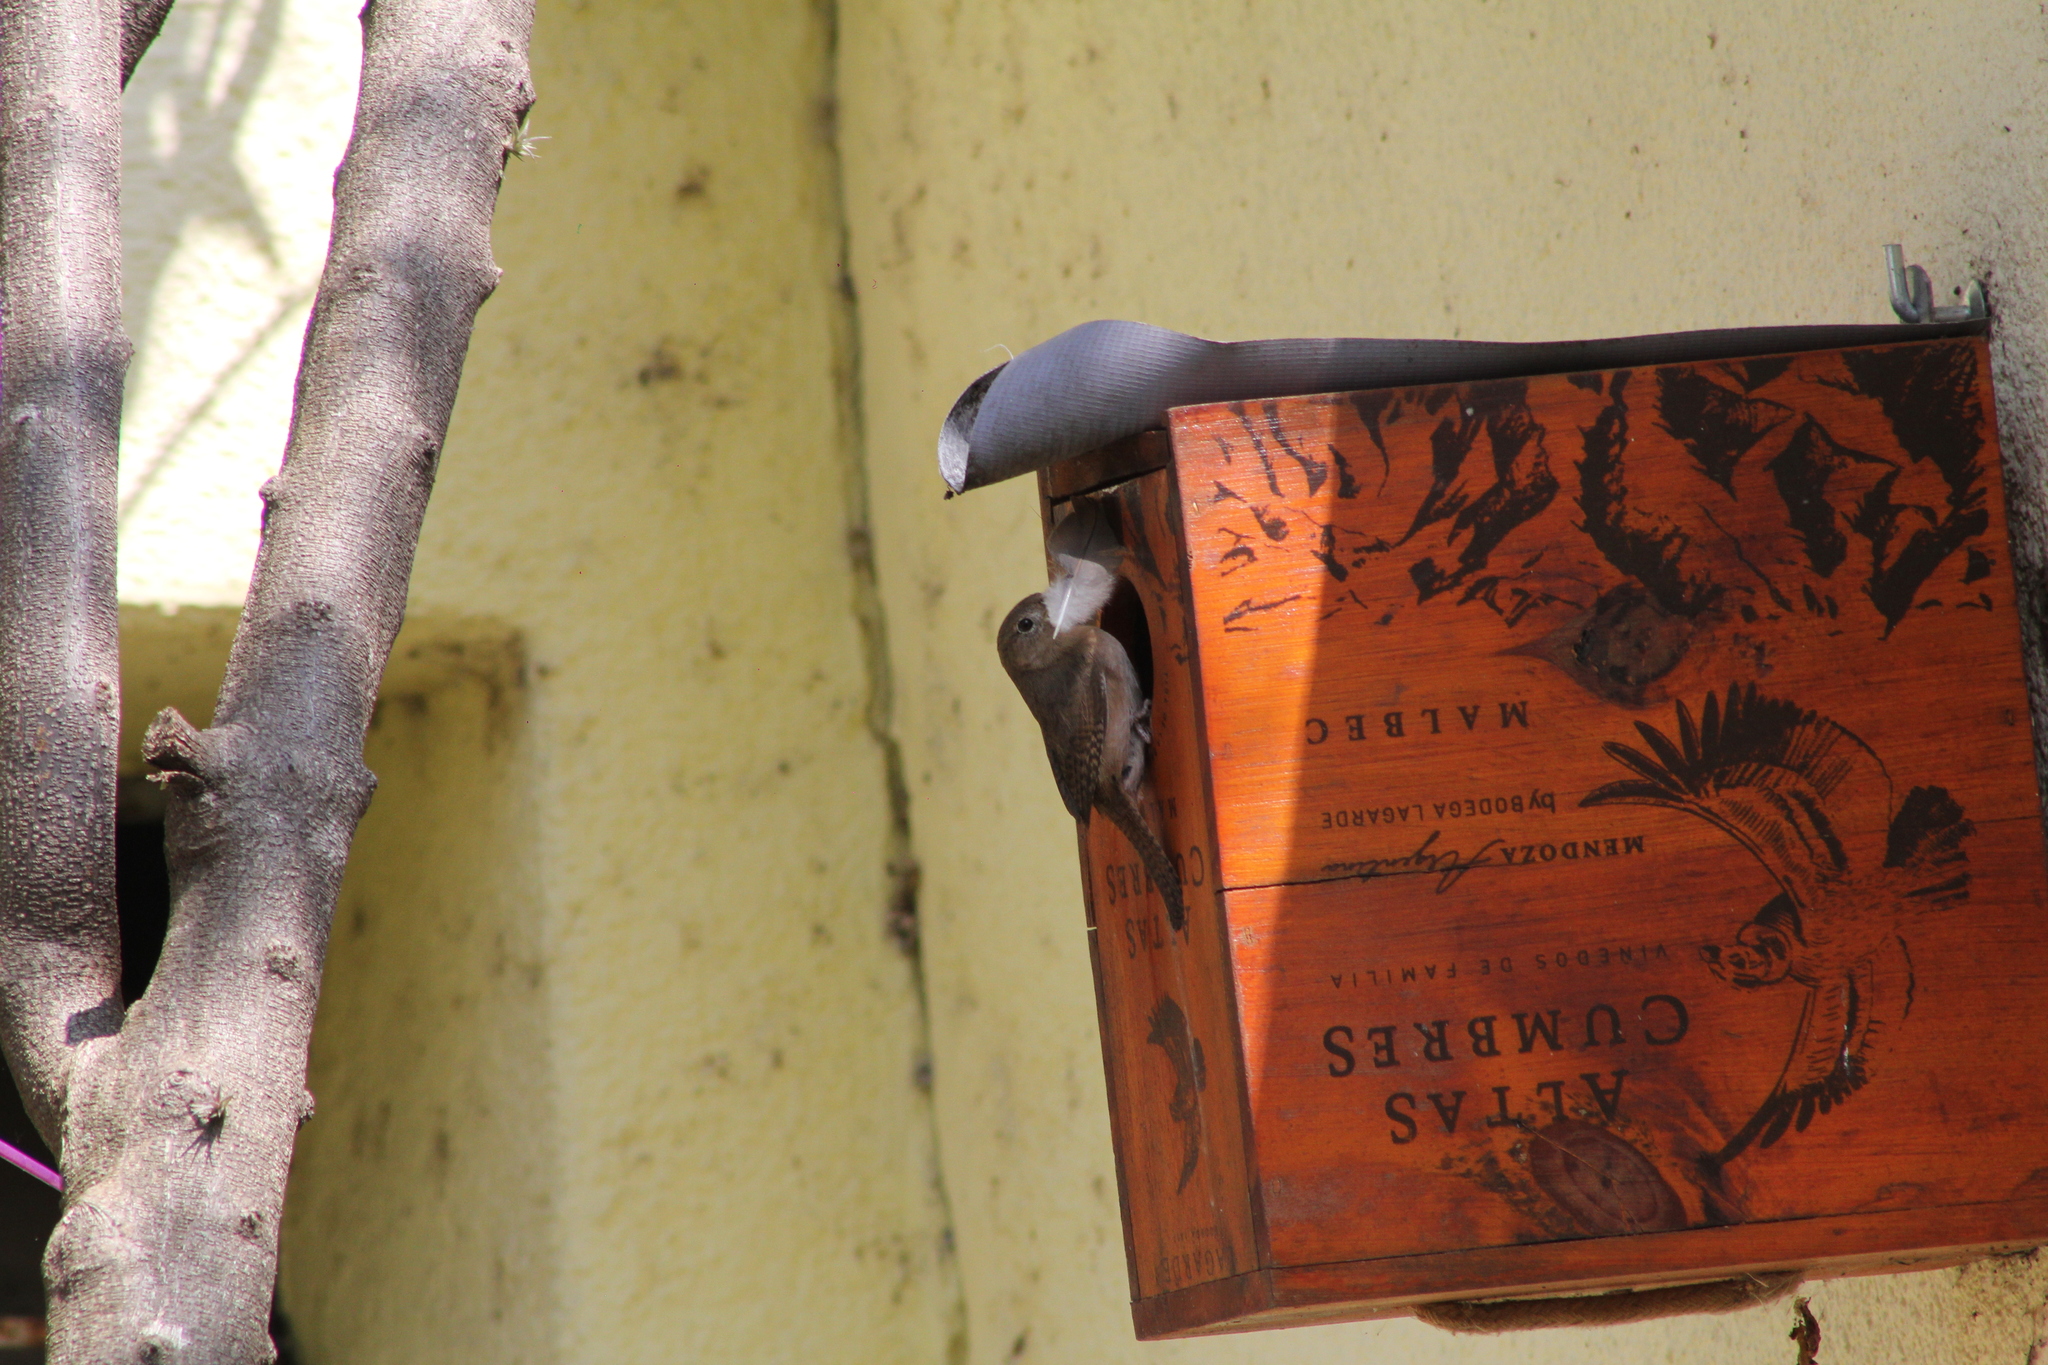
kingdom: Animalia
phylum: Chordata
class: Aves
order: Passeriformes
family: Troglodytidae
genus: Troglodytes
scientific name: Troglodytes aedon
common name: House wren
